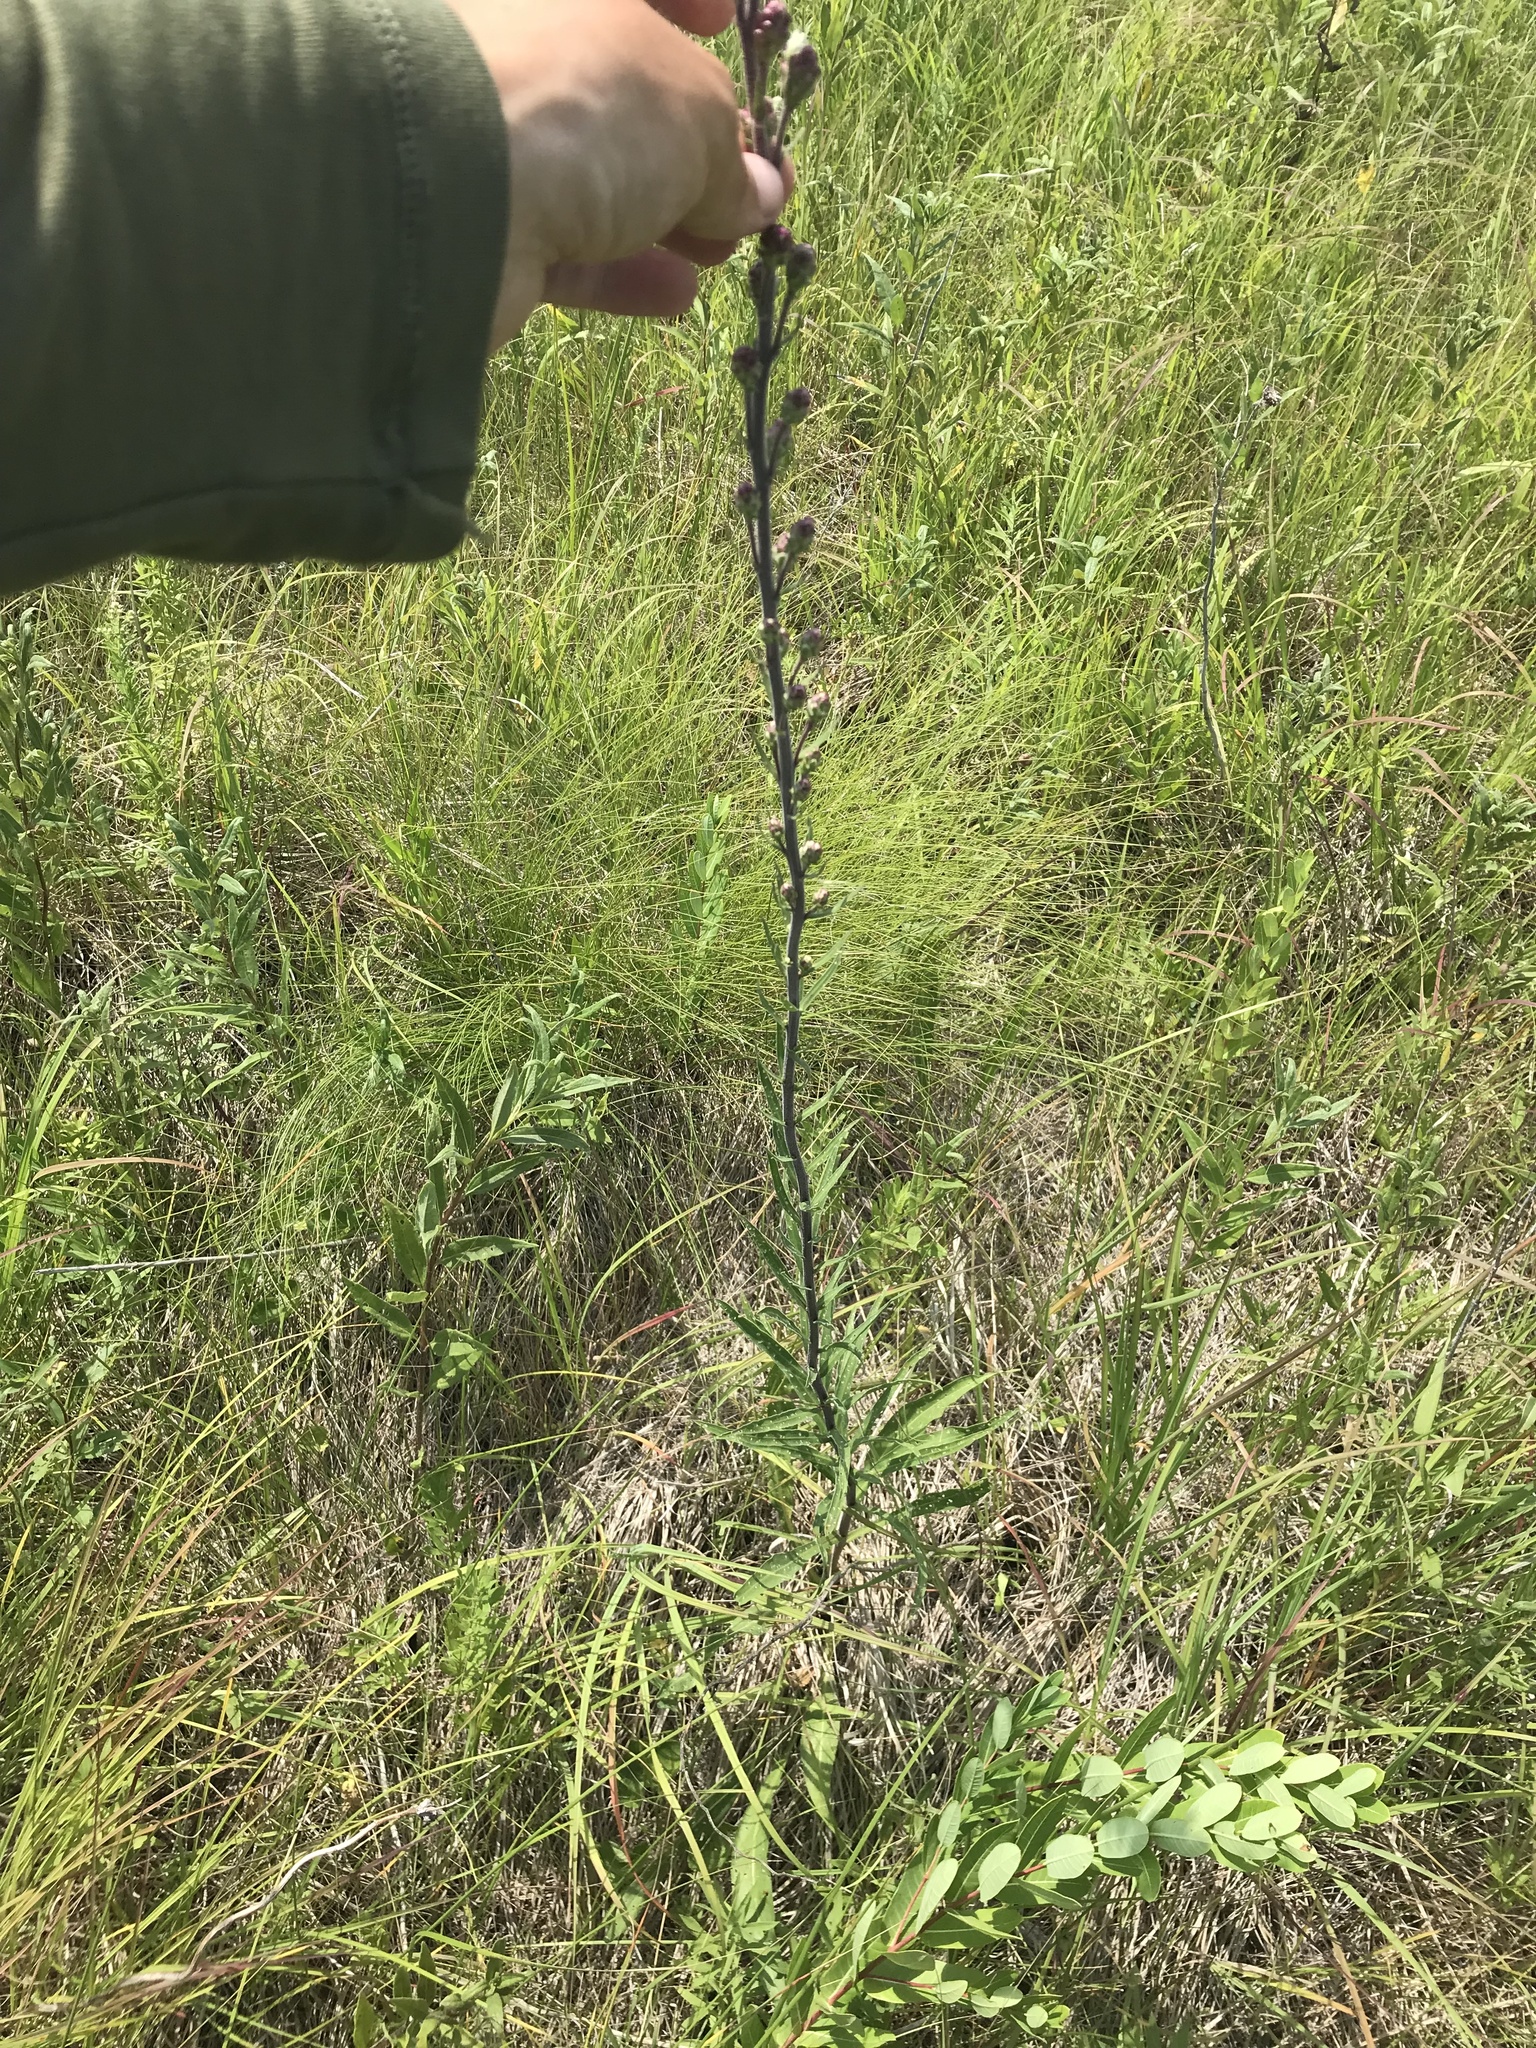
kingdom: Plantae
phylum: Tracheophyta
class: Magnoliopsida
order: Asterales
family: Asteraceae
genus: Liatris
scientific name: Liatris ligulistylis
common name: Northern plains gayfeather
